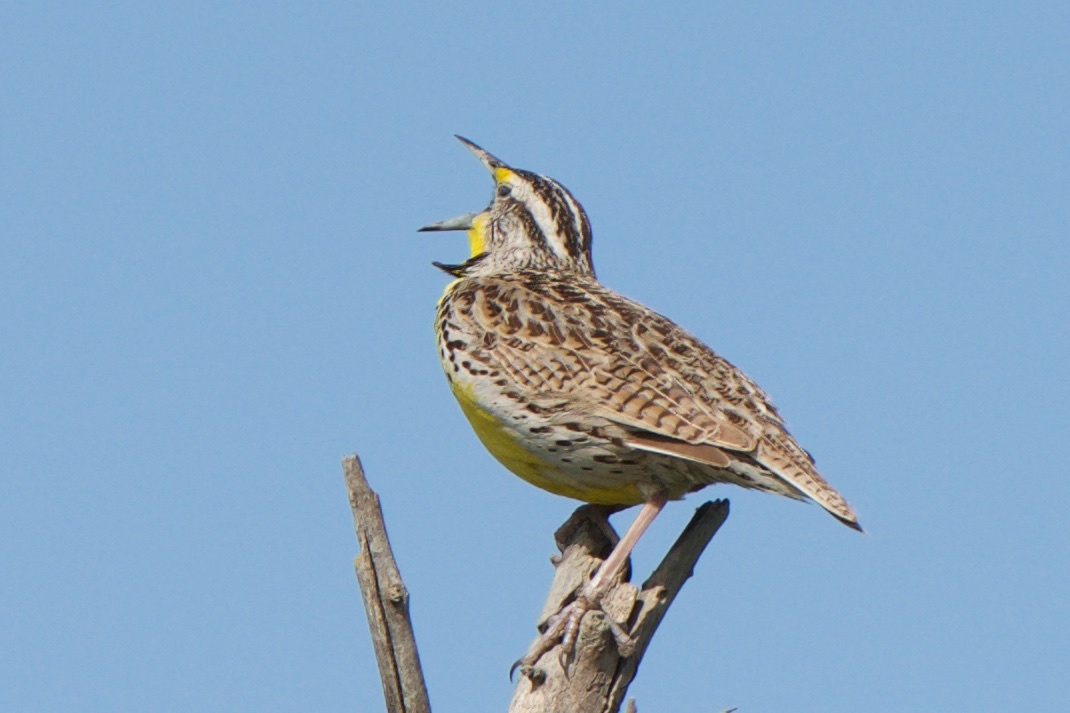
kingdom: Animalia
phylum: Chordata
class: Aves
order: Passeriformes
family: Icteridae
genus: Sturnella
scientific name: Sturnella neglecta
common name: Western meadowlark
